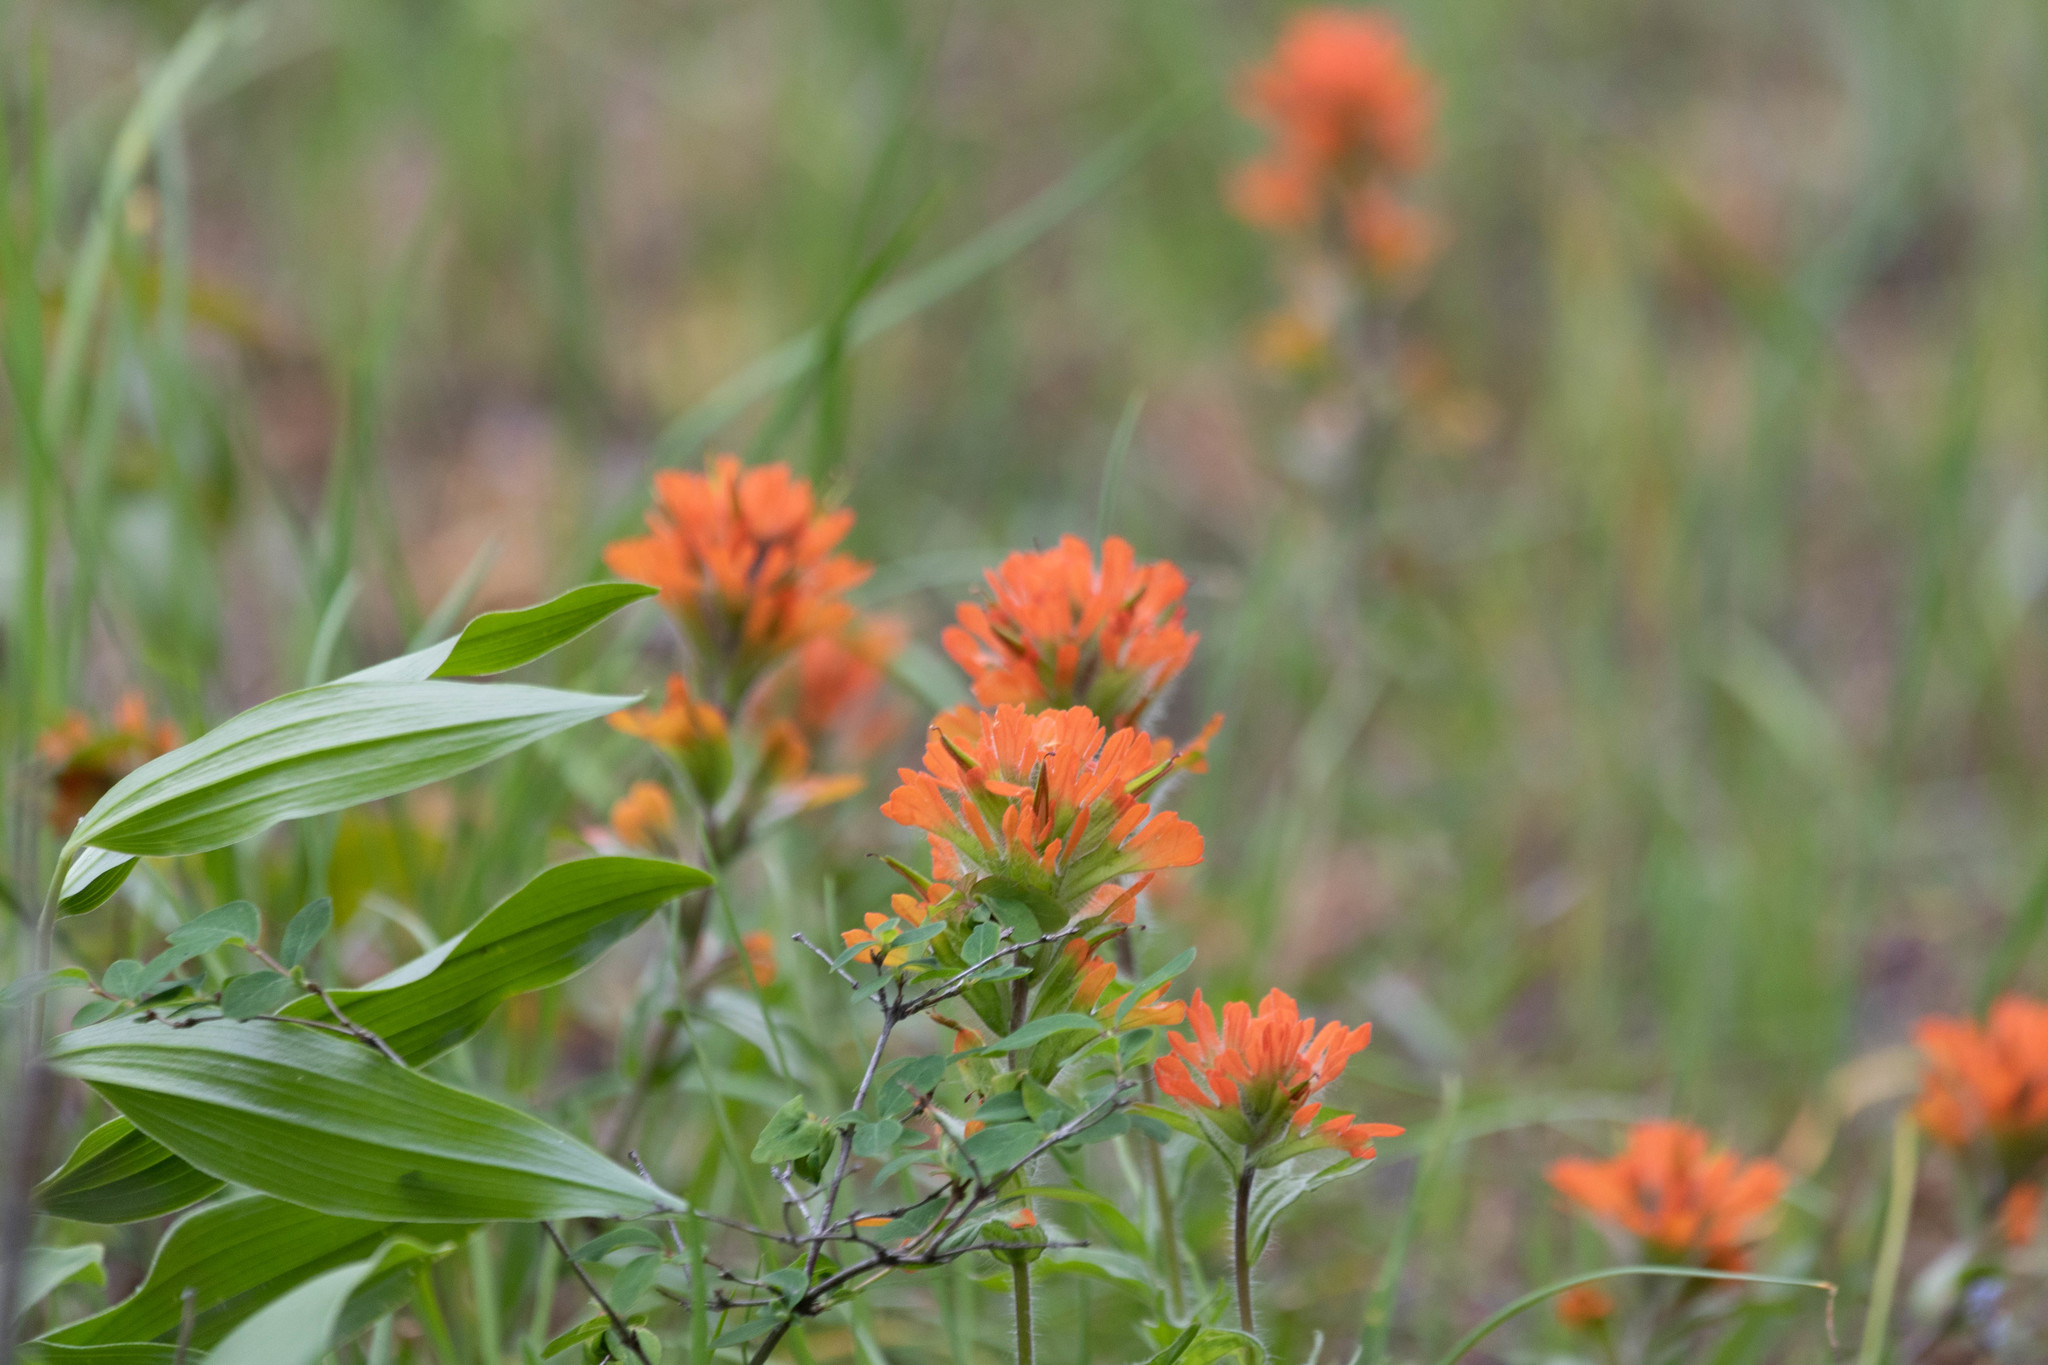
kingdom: Plantae
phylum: Tracheophyta
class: Magnoliopsida
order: Lamiales
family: Orobanchaceae
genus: Castilleja
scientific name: Castilleja hispida
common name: Bristly paintbrush
